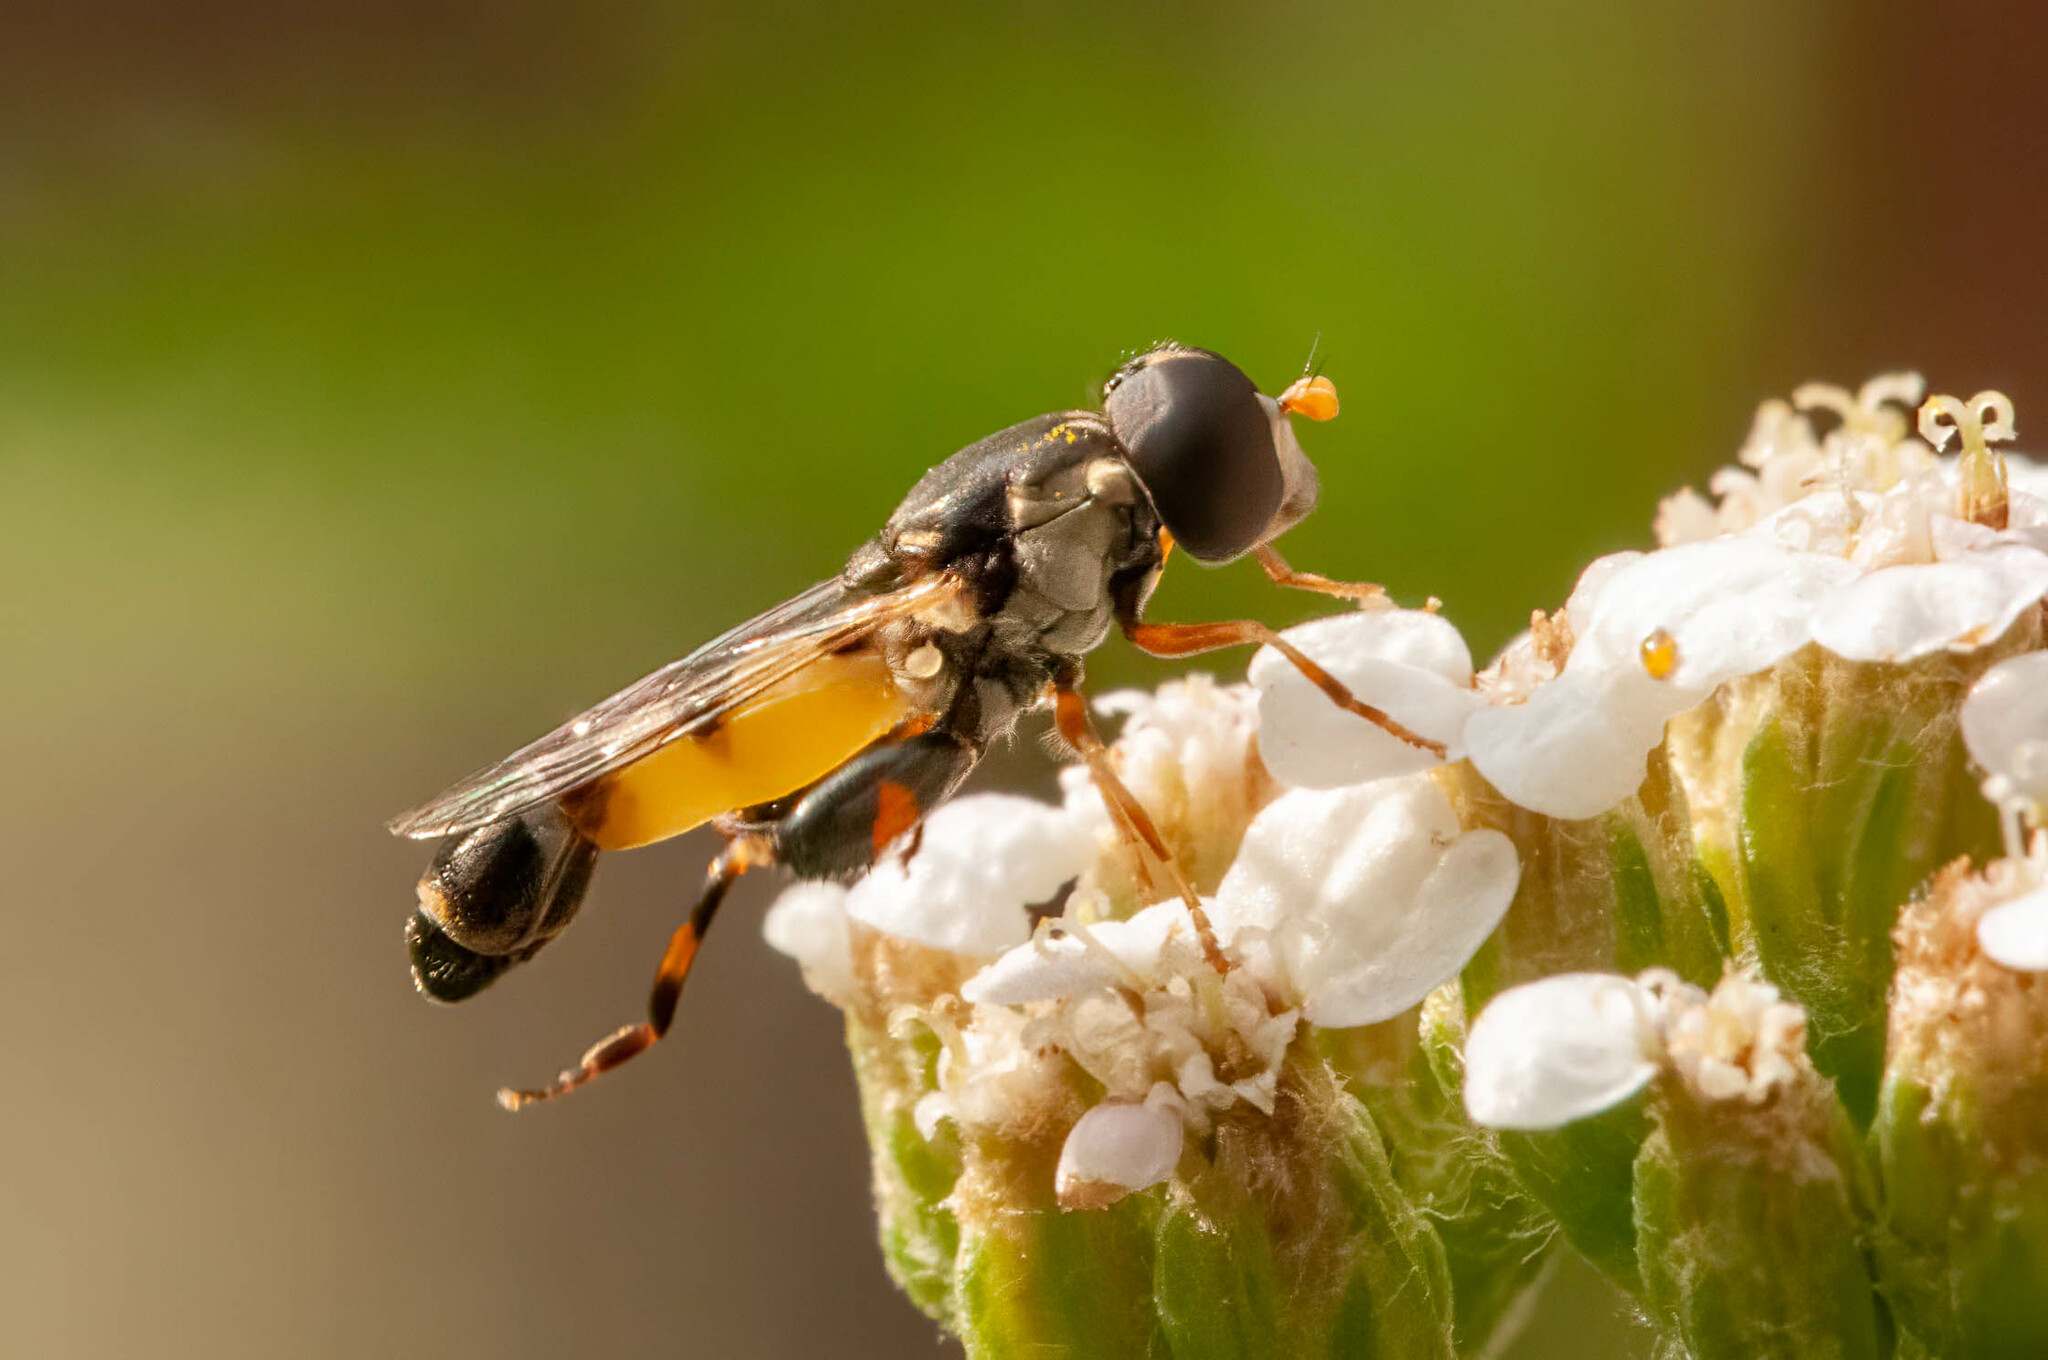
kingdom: Animalia
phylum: Arthropoda
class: Insecta
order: Diptera
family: Syrphidae
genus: Syritta
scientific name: Syritta pipiens
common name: Hover fly
